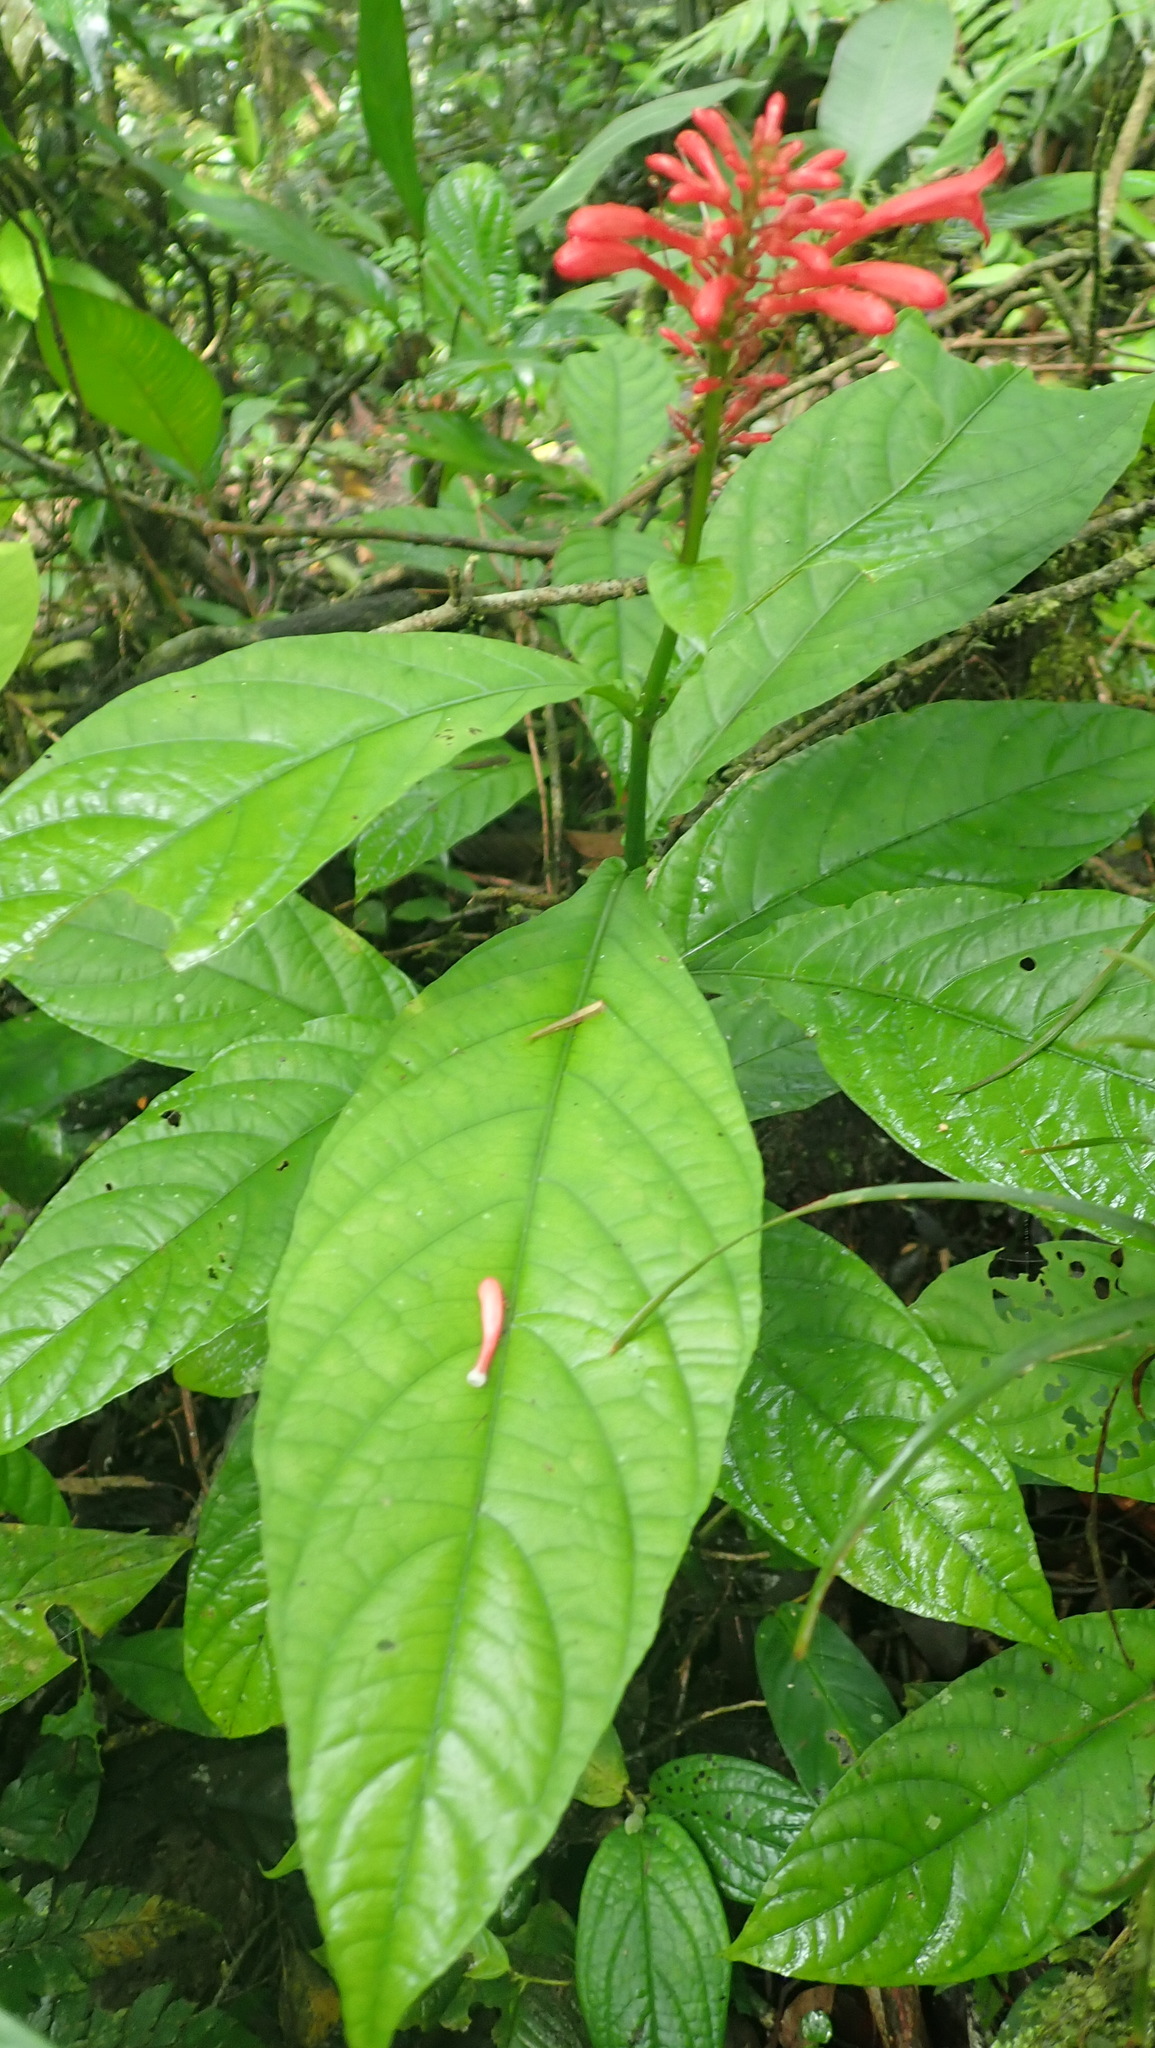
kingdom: Plantae
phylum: Tracheophyta
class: Magnoliopsida
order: Lamiales
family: Acanthaceae
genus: Odontonema
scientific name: Odontonema tubaeforme
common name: Firespike
